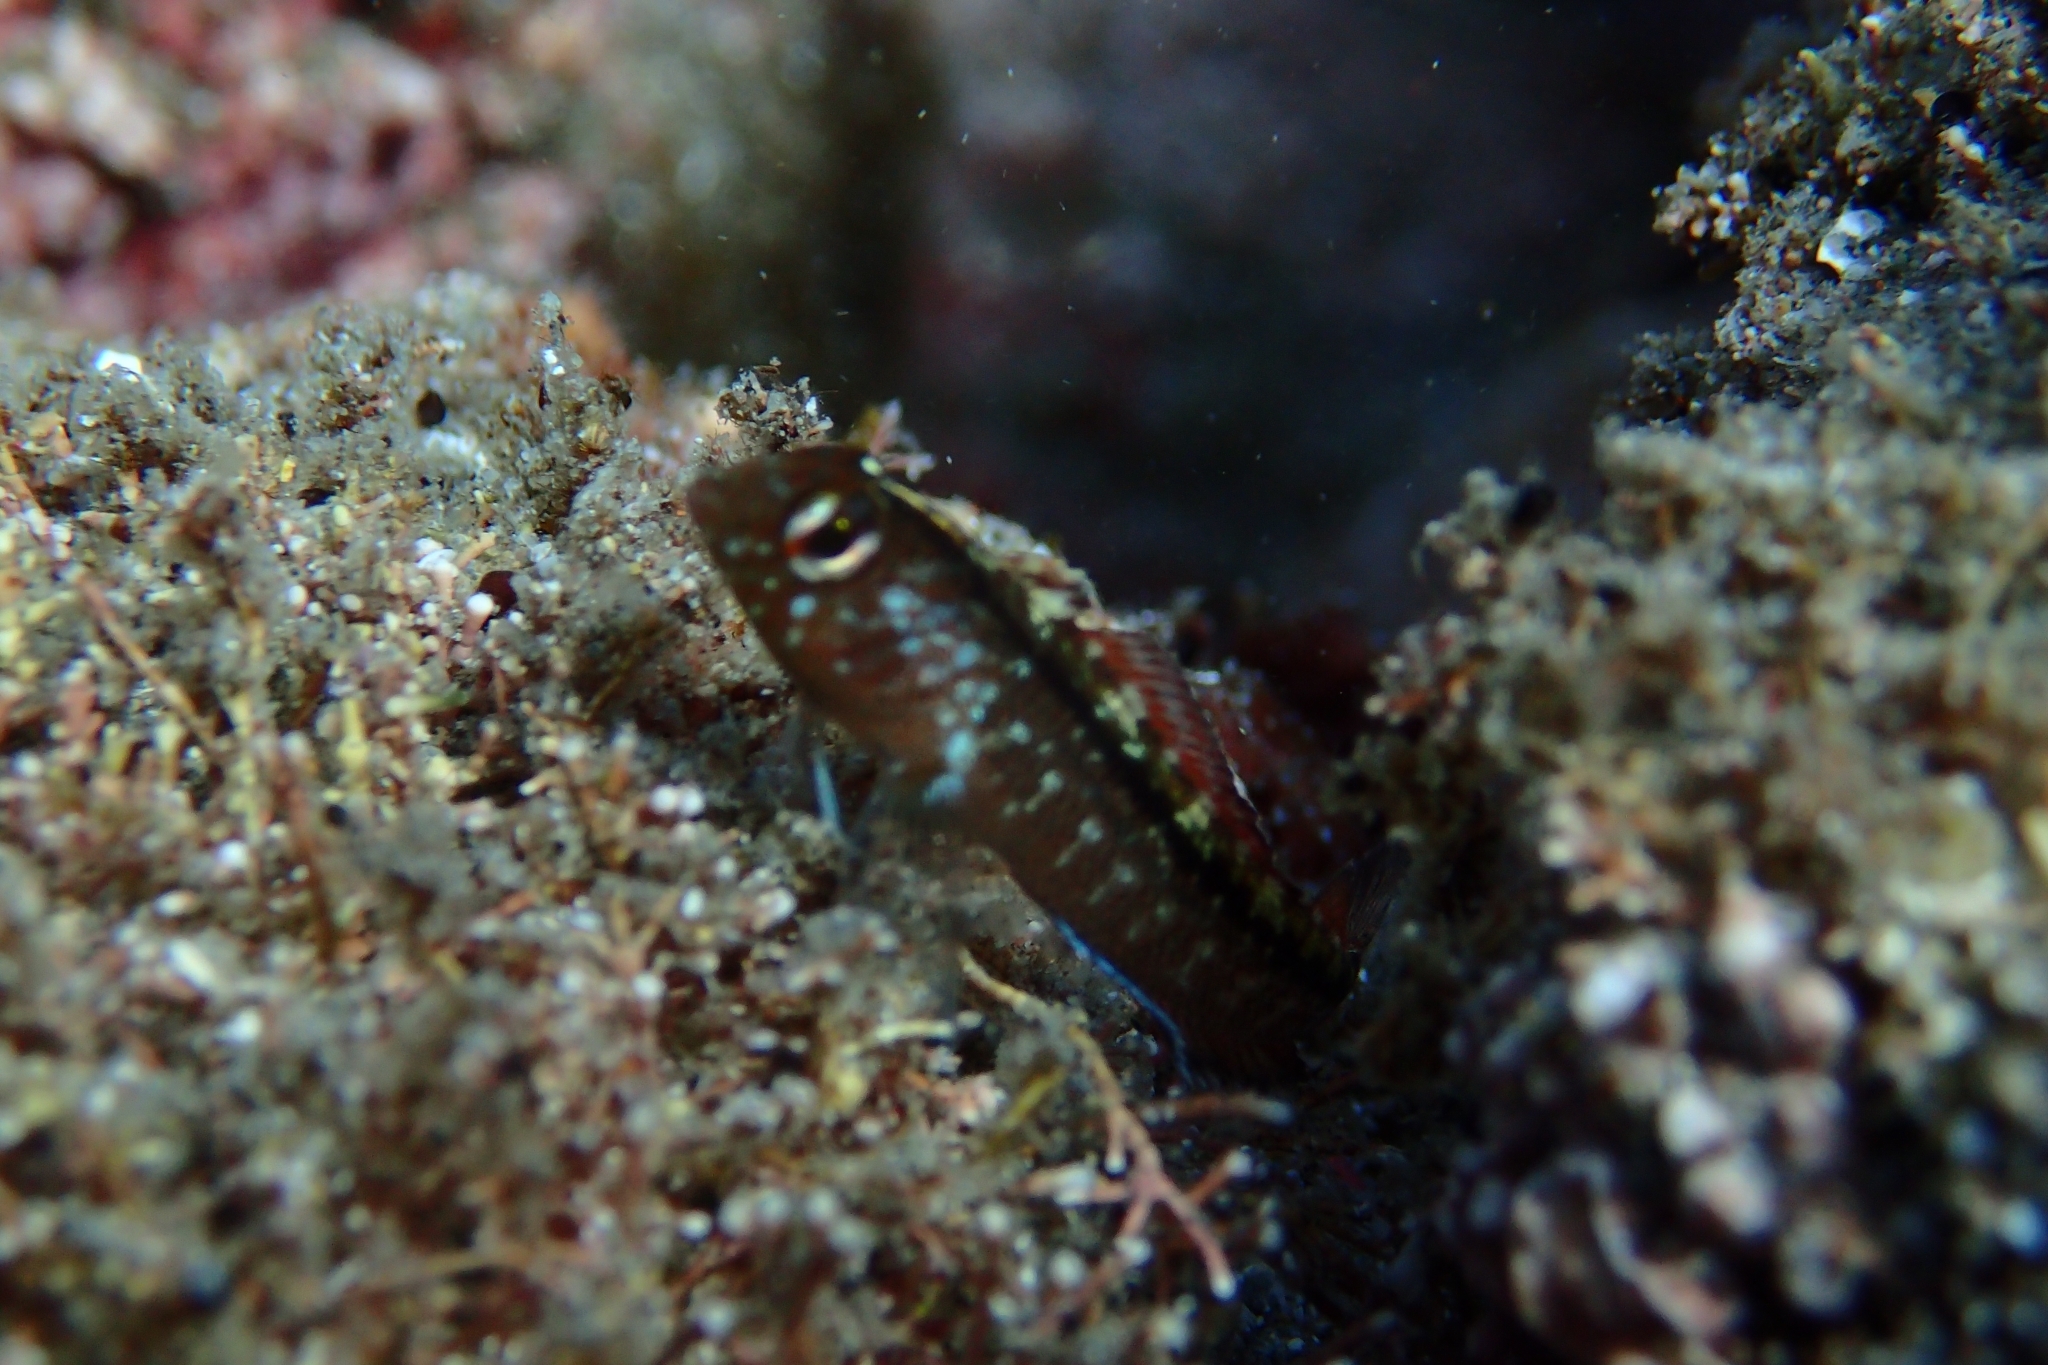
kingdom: Animalia
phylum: Chordata
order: Perciformes
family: Tripterygiidae
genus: Forsterygion
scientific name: Forsterygion lapillum
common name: Common triplefin
